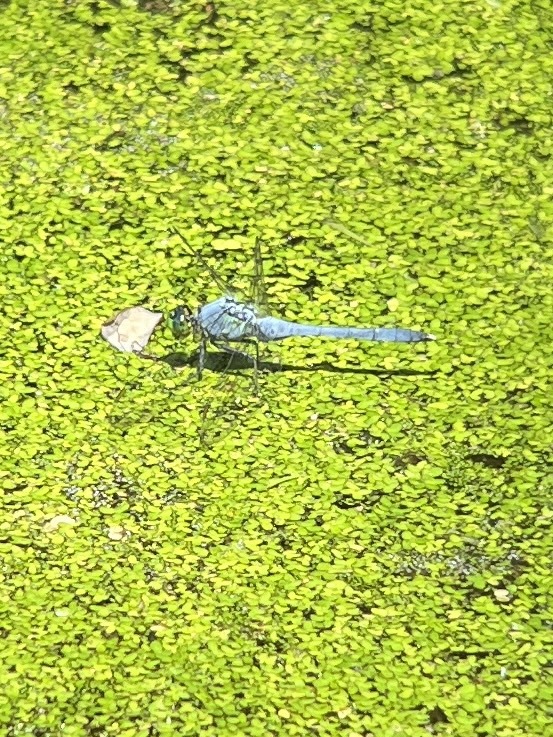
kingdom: Animalia
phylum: Arthropoda
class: Insecta
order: Odonata
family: Libellulidae
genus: Erythemis
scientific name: Erythemis simplicicollis
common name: Eastern pondhawk
